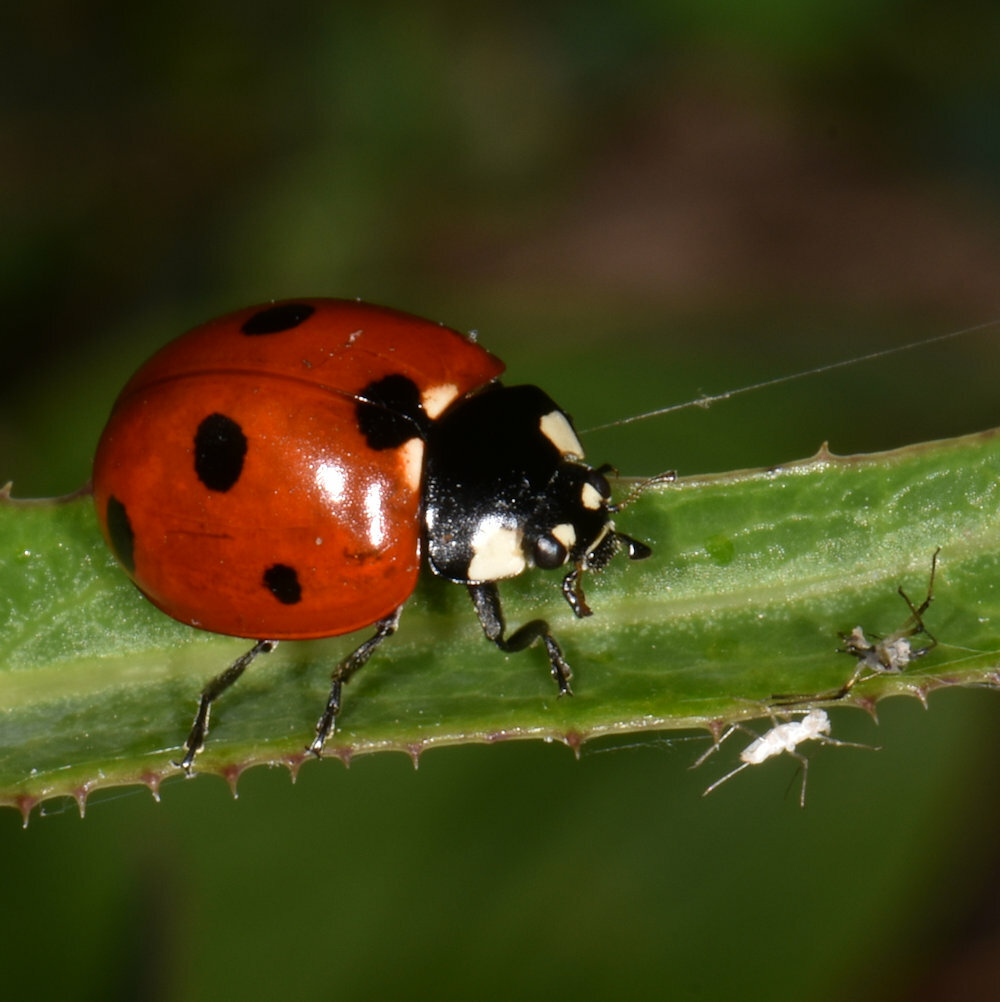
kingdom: Animalia
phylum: Arthropoda
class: Insecta
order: Coleoptera
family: Coccinellidae
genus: Coccinella
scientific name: Coccinella septempunctata
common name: Sevenspotted lady beetle
